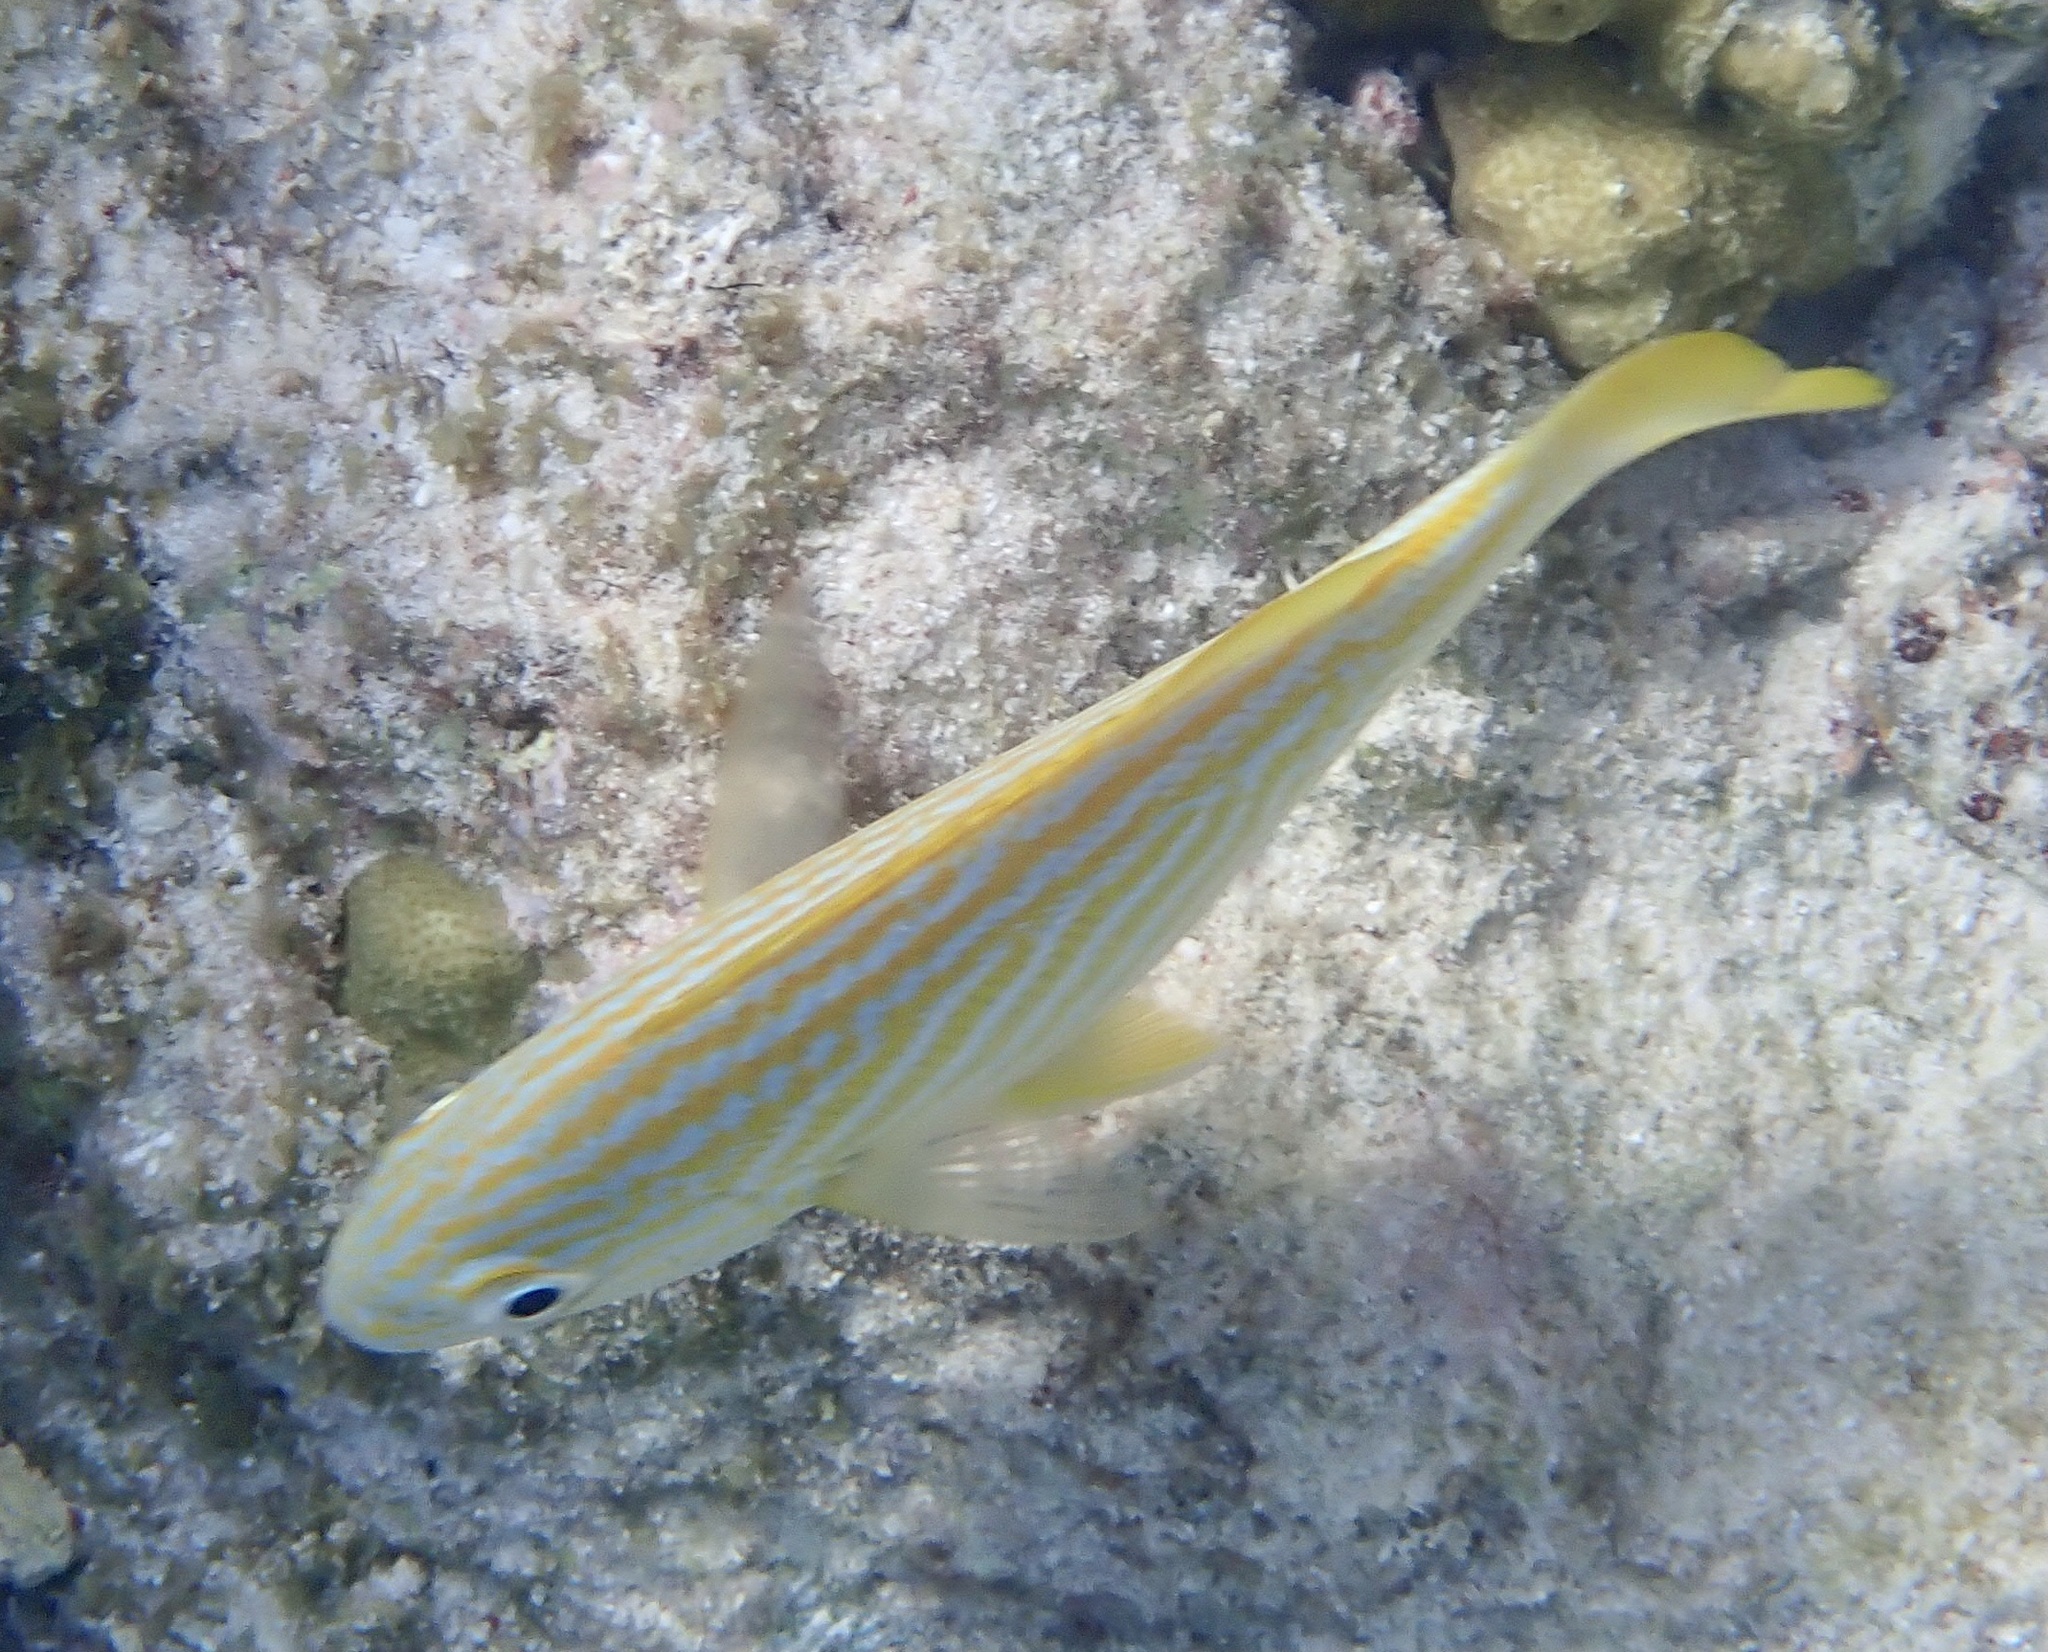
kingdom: Animalia
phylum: Chordata
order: Perciformes
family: Haemulidae
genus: Haemulon
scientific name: Haemulon flavolineatum
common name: French grunt
